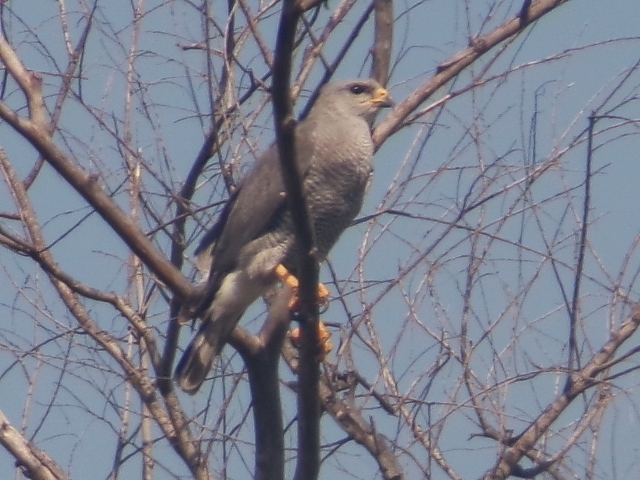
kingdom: Animalia
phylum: Chordata
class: Aves
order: Accipitriformes
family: Accipitridae
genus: Buteo
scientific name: Buteo nitidus
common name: Grey-lined hawk
